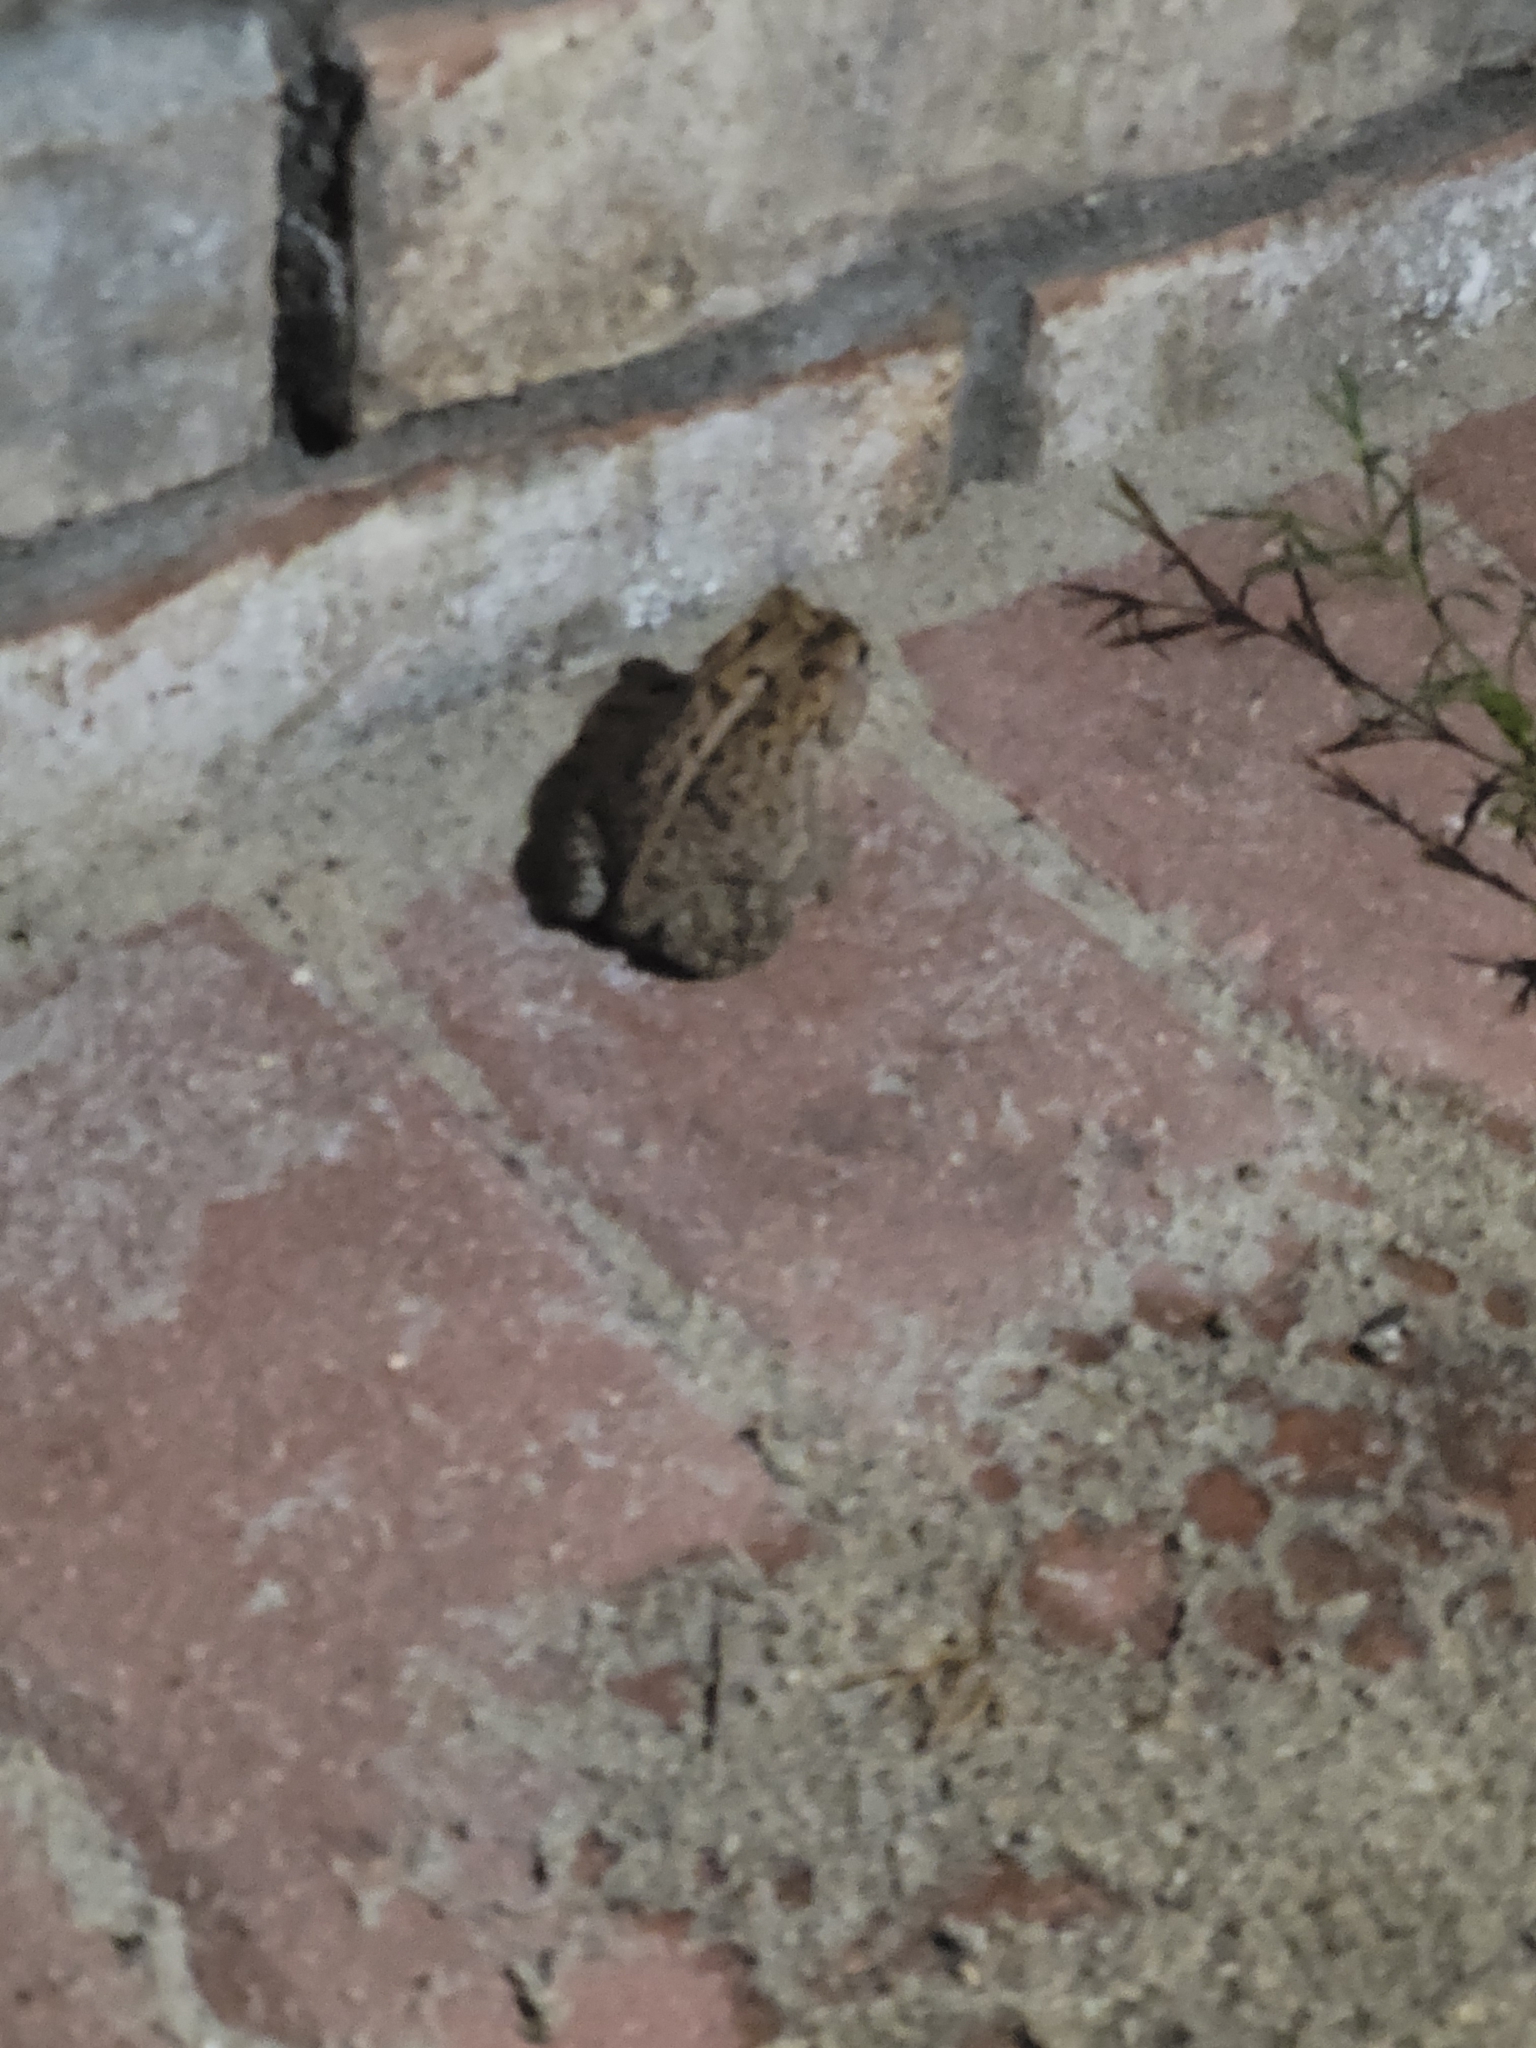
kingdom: Animalia
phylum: Chordata
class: Amphibia
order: Anura
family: Bufonidae
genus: Anaxyrus
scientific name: Anaxyrus terrestris
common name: Southern toad
